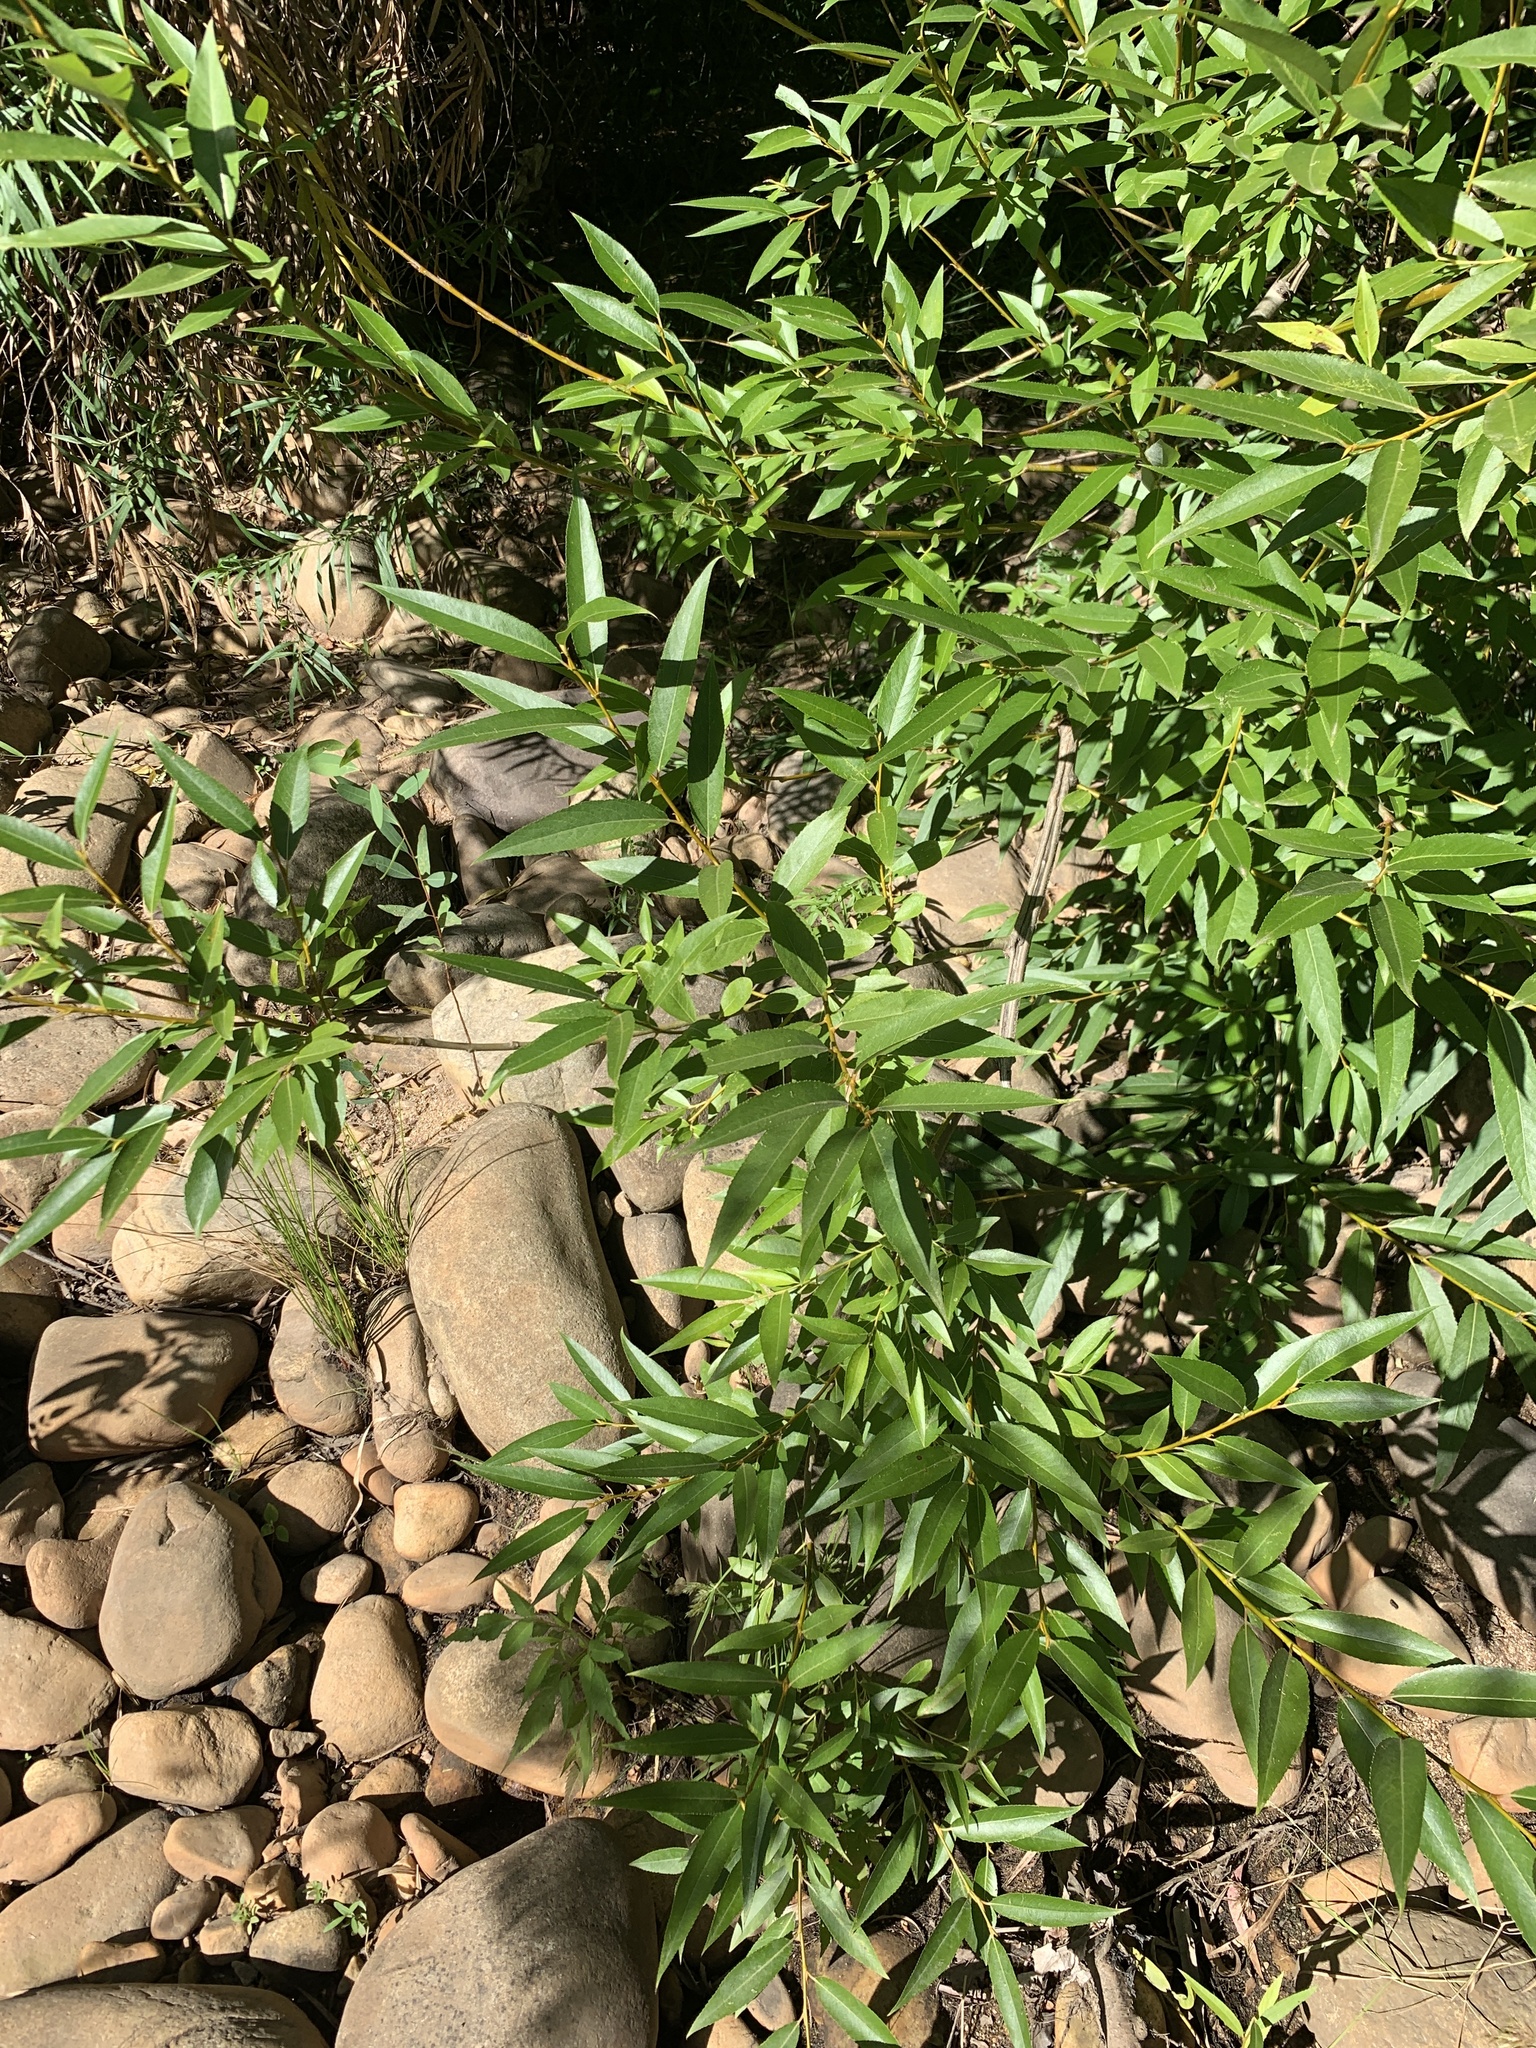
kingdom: Plantae
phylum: Tracheophyta
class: Magnoliopsida
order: Malpighiales
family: Salicaceae
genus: Salix
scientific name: Salix mucronata
